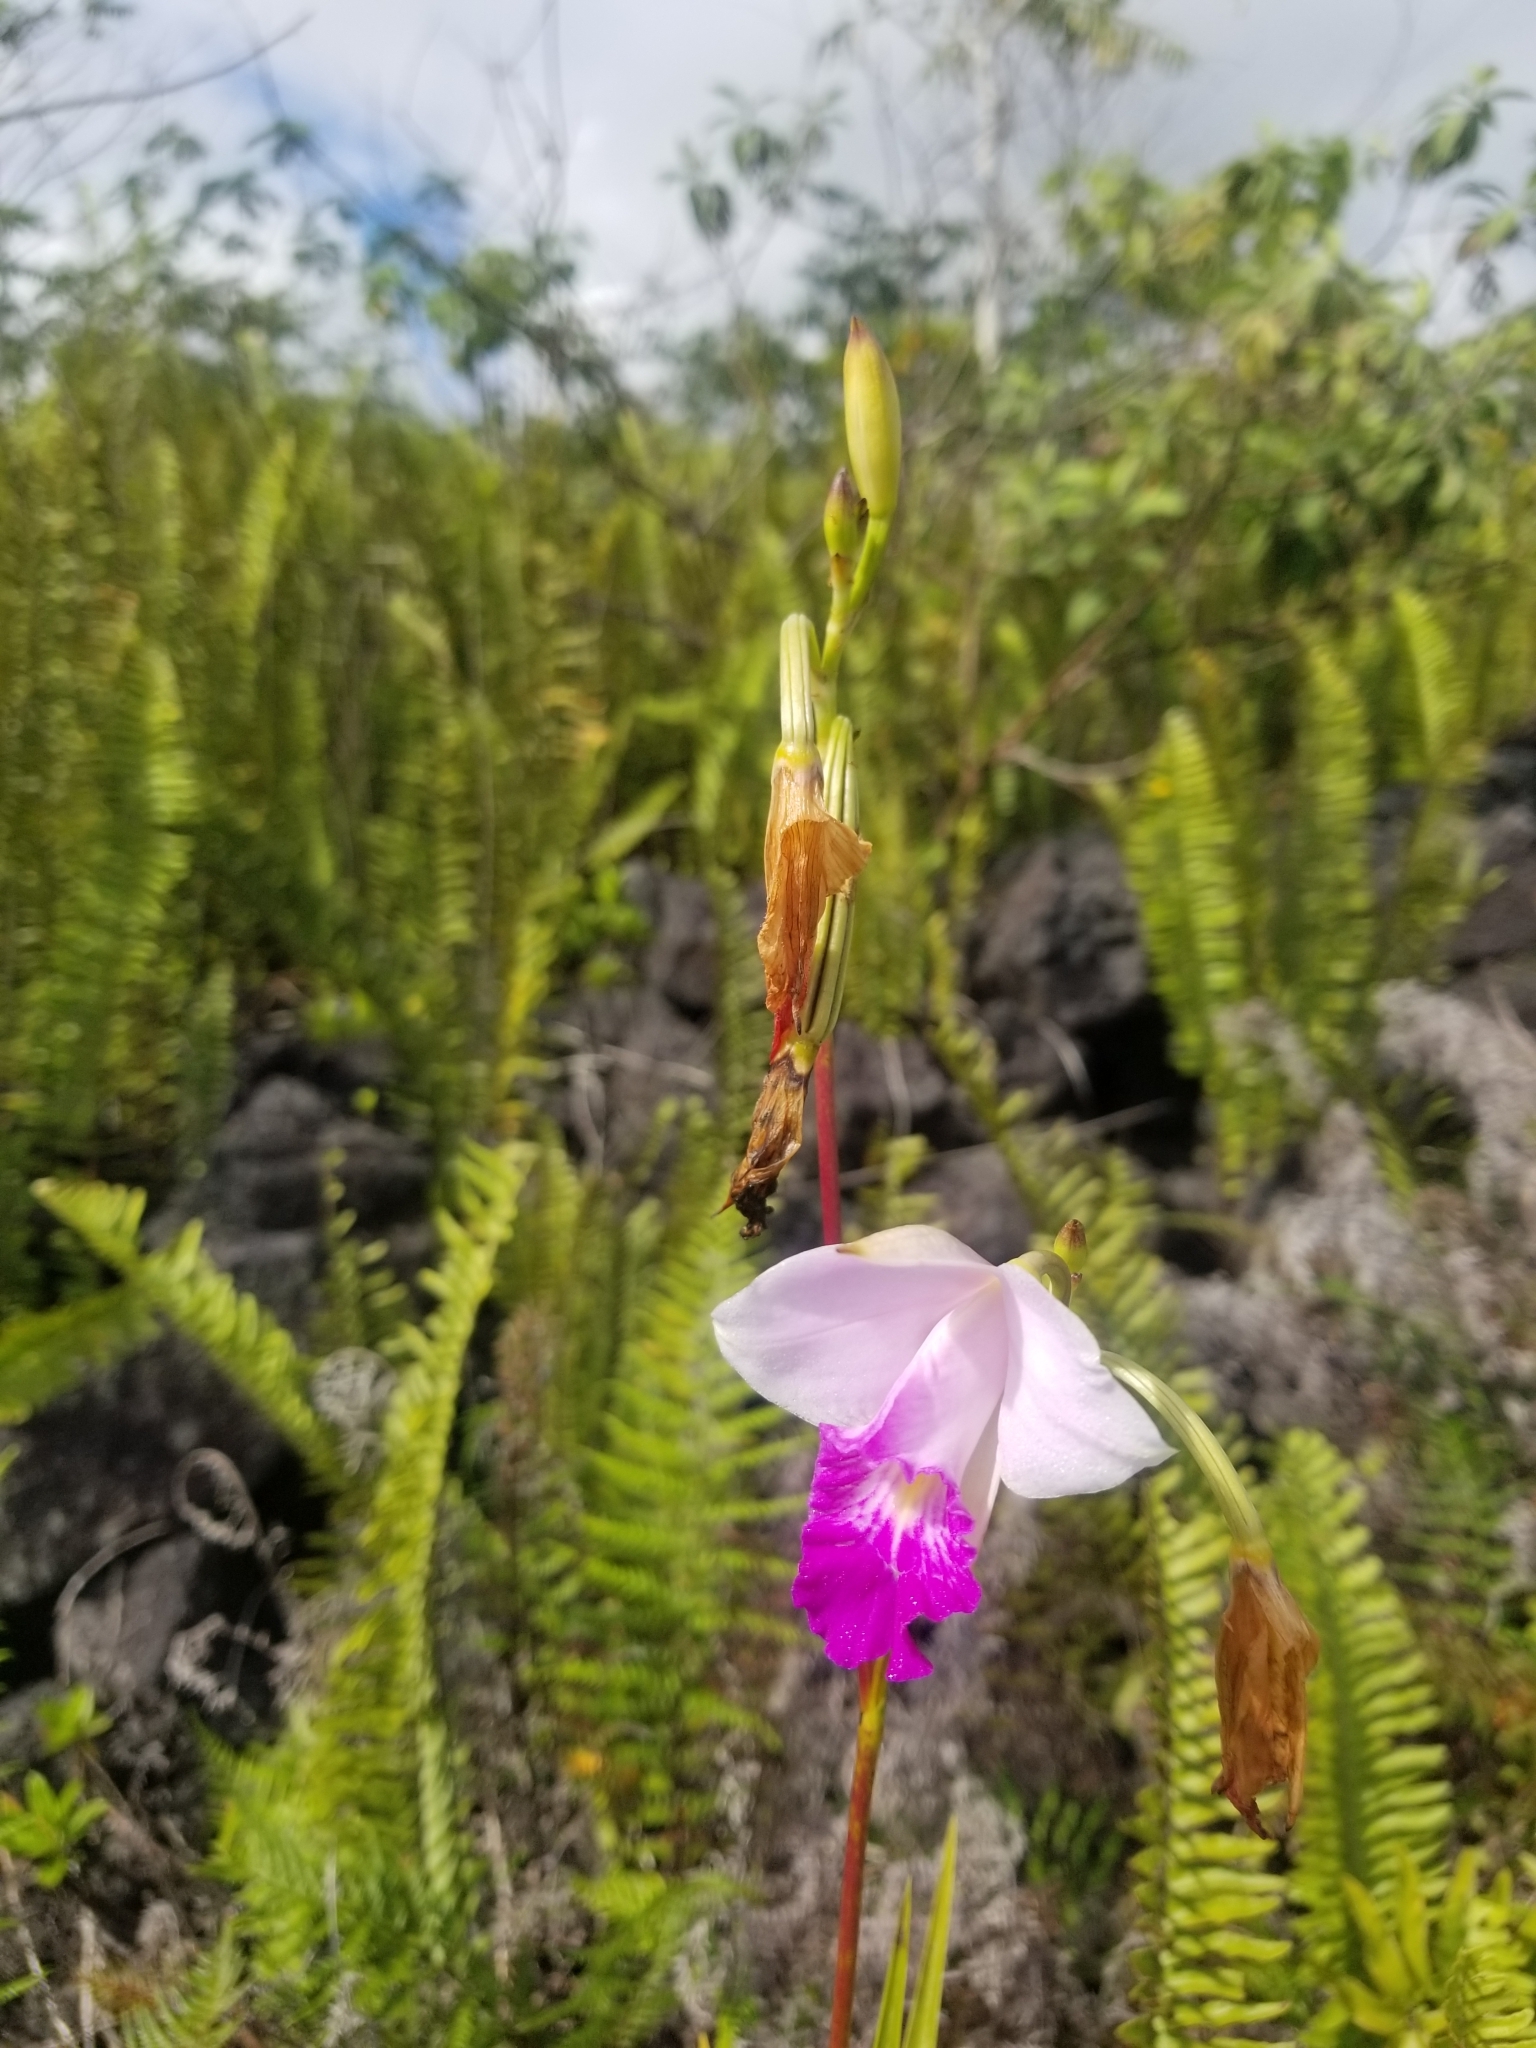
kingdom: Plantae
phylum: Tracheophyta
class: Liliopsida
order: Asparagales
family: Orchidaceae
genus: Arundina
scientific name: Arundina graminifolia
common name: Bamboo orchid
